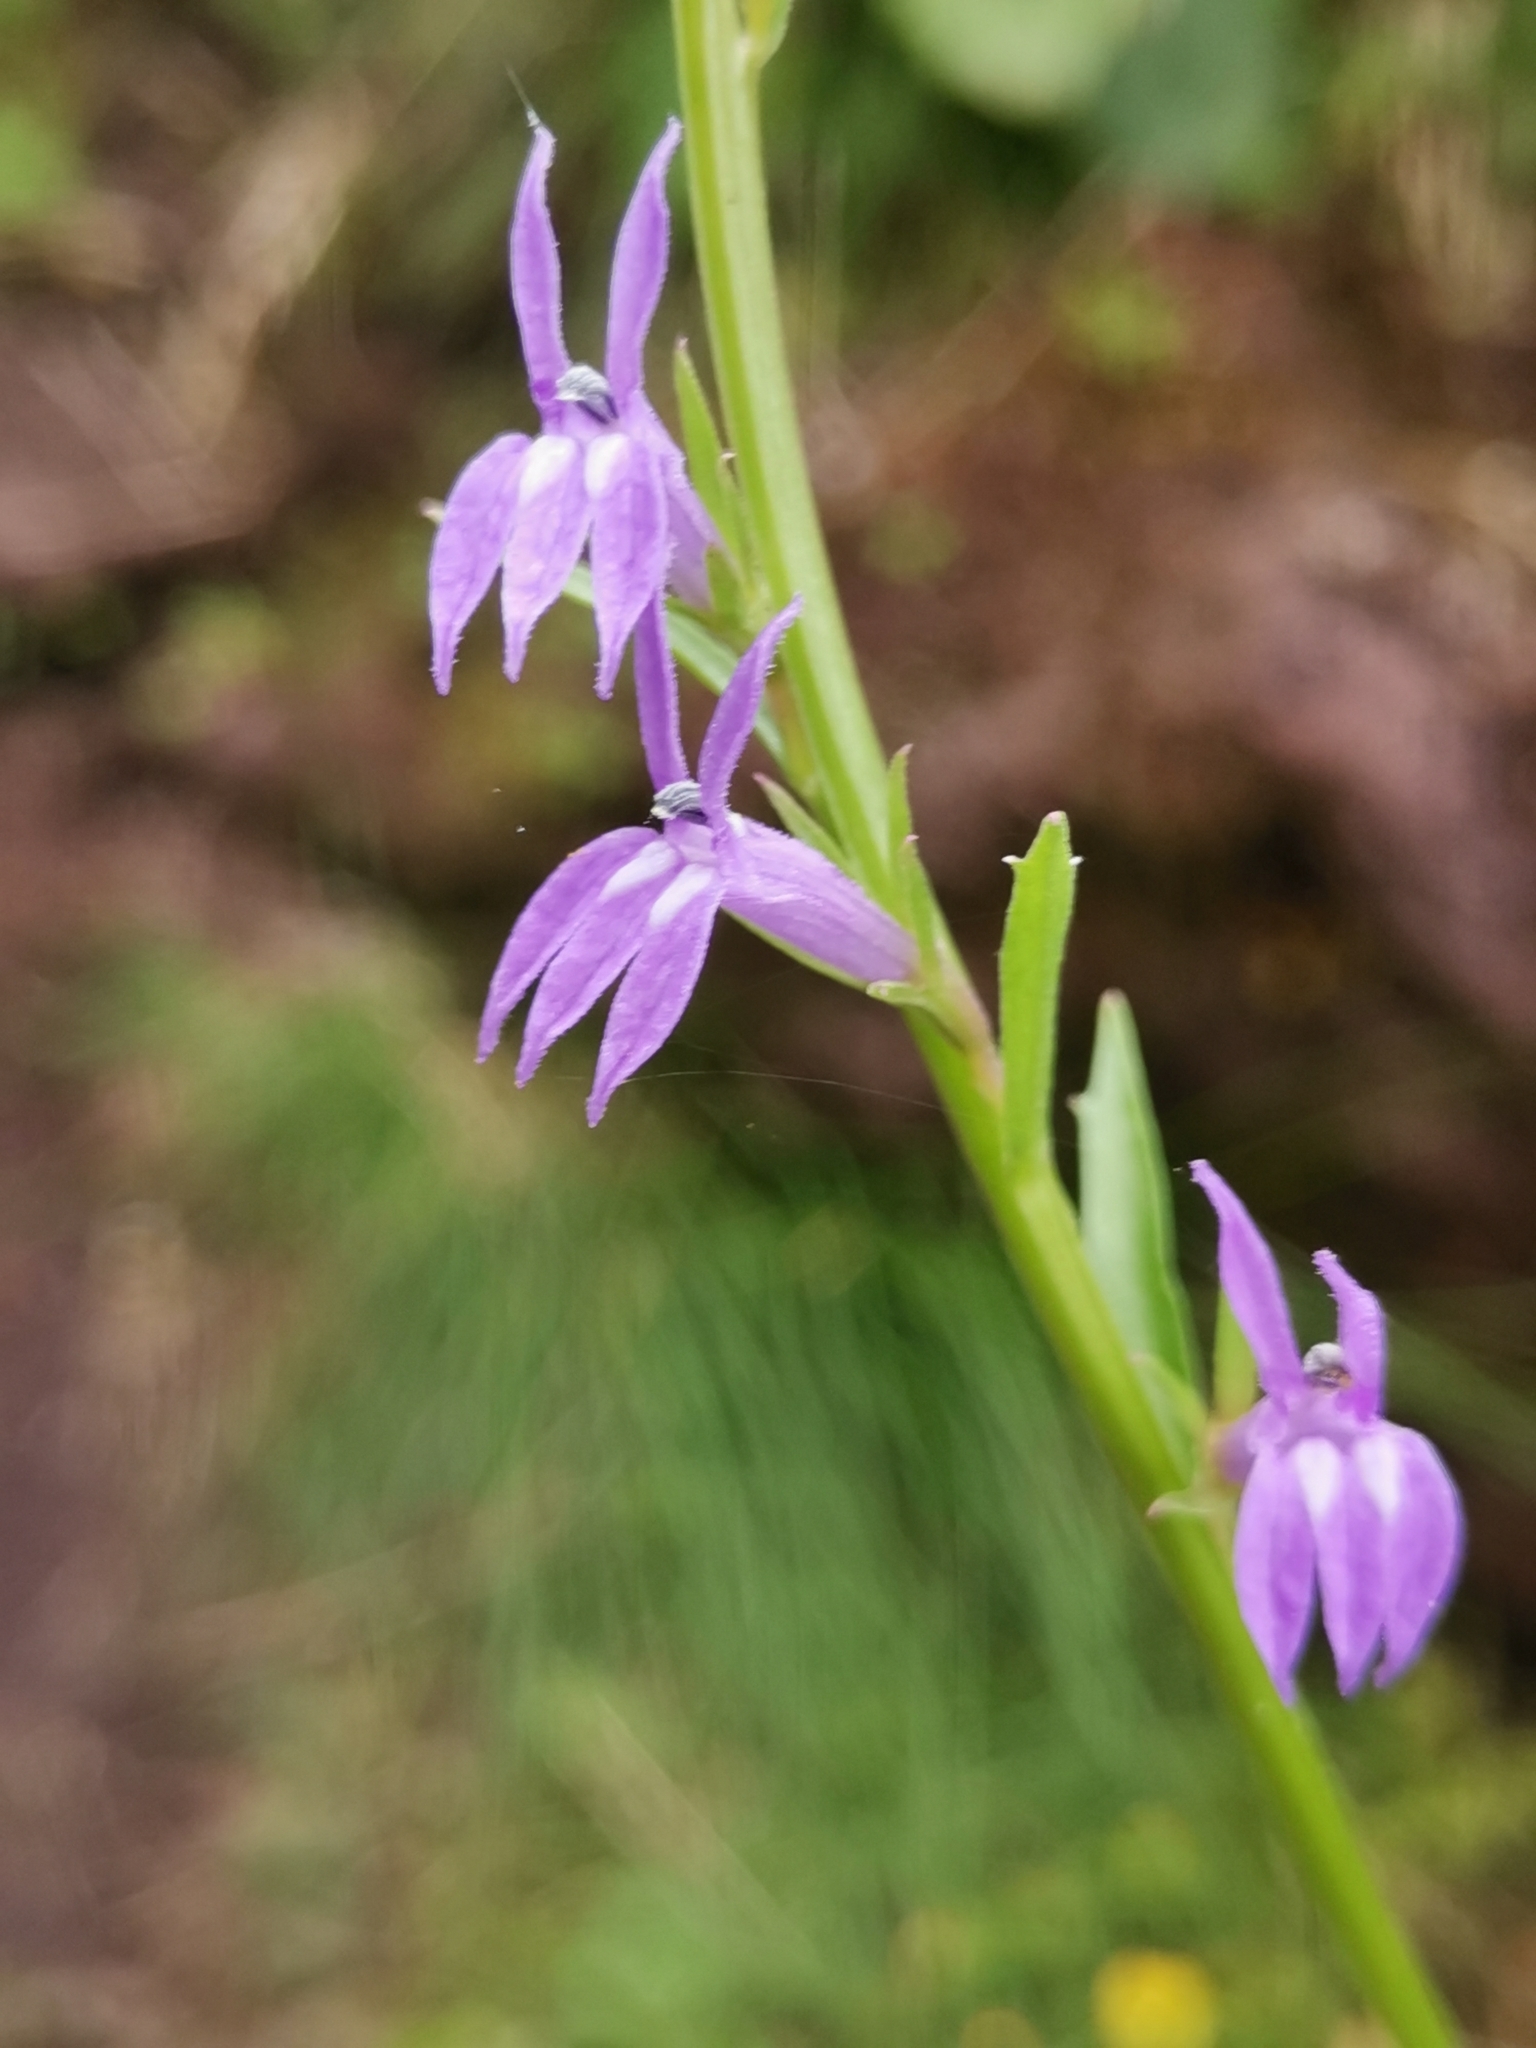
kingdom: Plantae
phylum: Tracheophyta
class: Magnoliopsida
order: Asterales
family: Campanulaceae
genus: Lobelia
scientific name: Lobelia urens
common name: Heath lobelia
